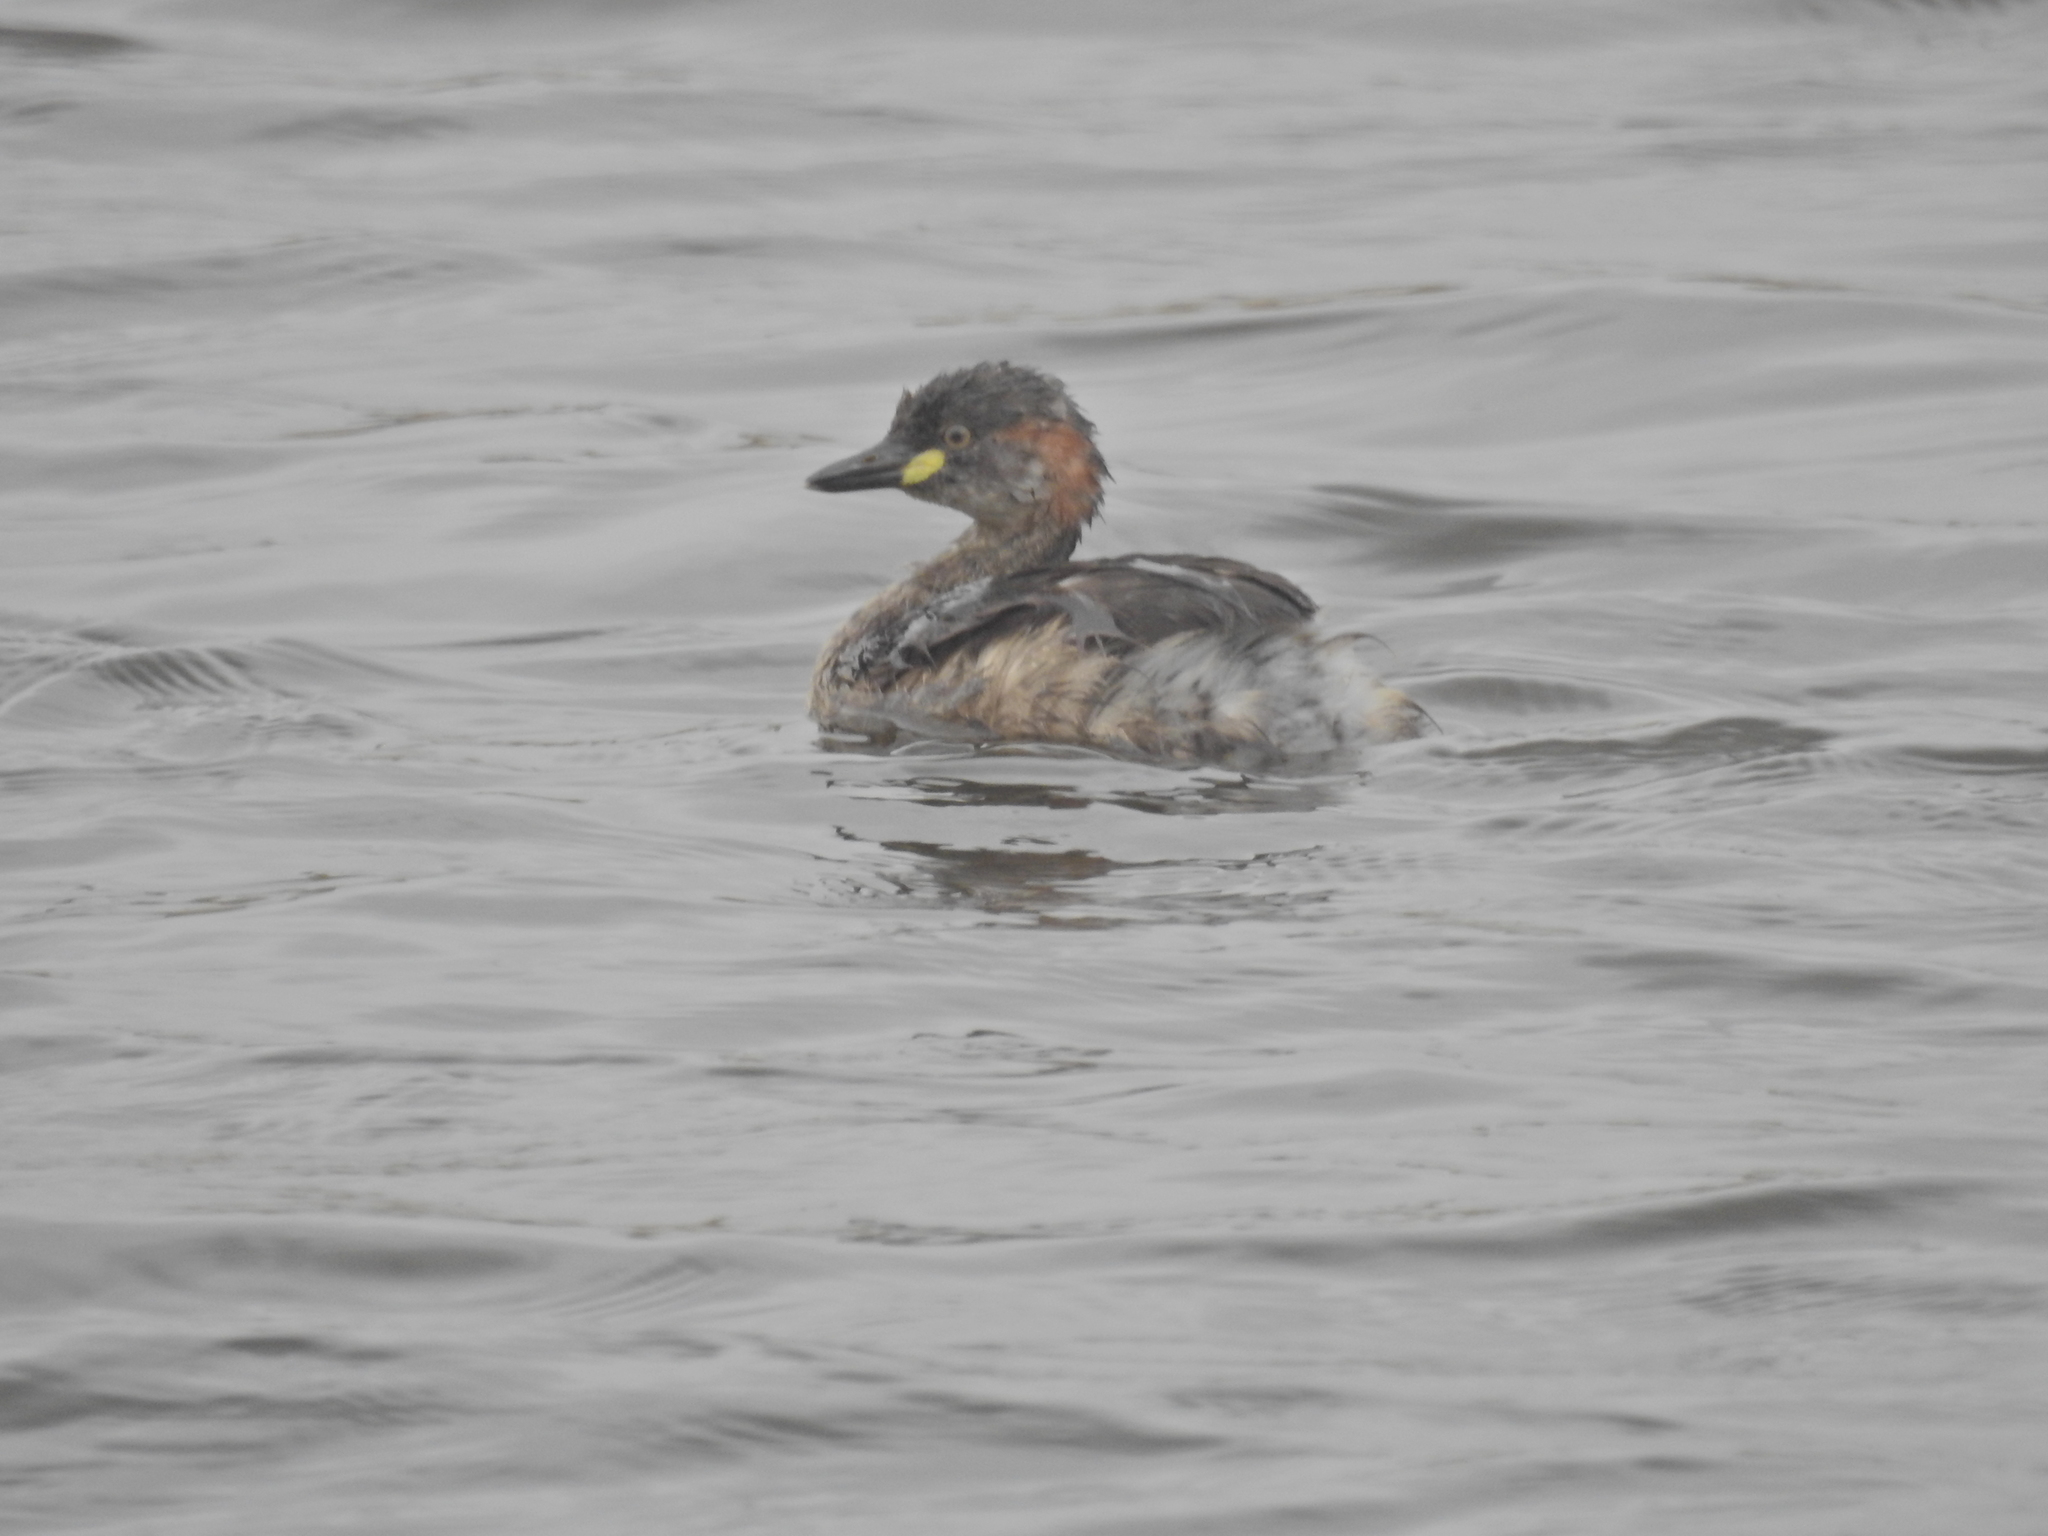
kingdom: Animalia
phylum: Chordata
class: Aves
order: Podicipediformes
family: Podicipedidae
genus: Tachybaptus
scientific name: Tachybaptus novaehollandiae
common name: Australasian grebe
